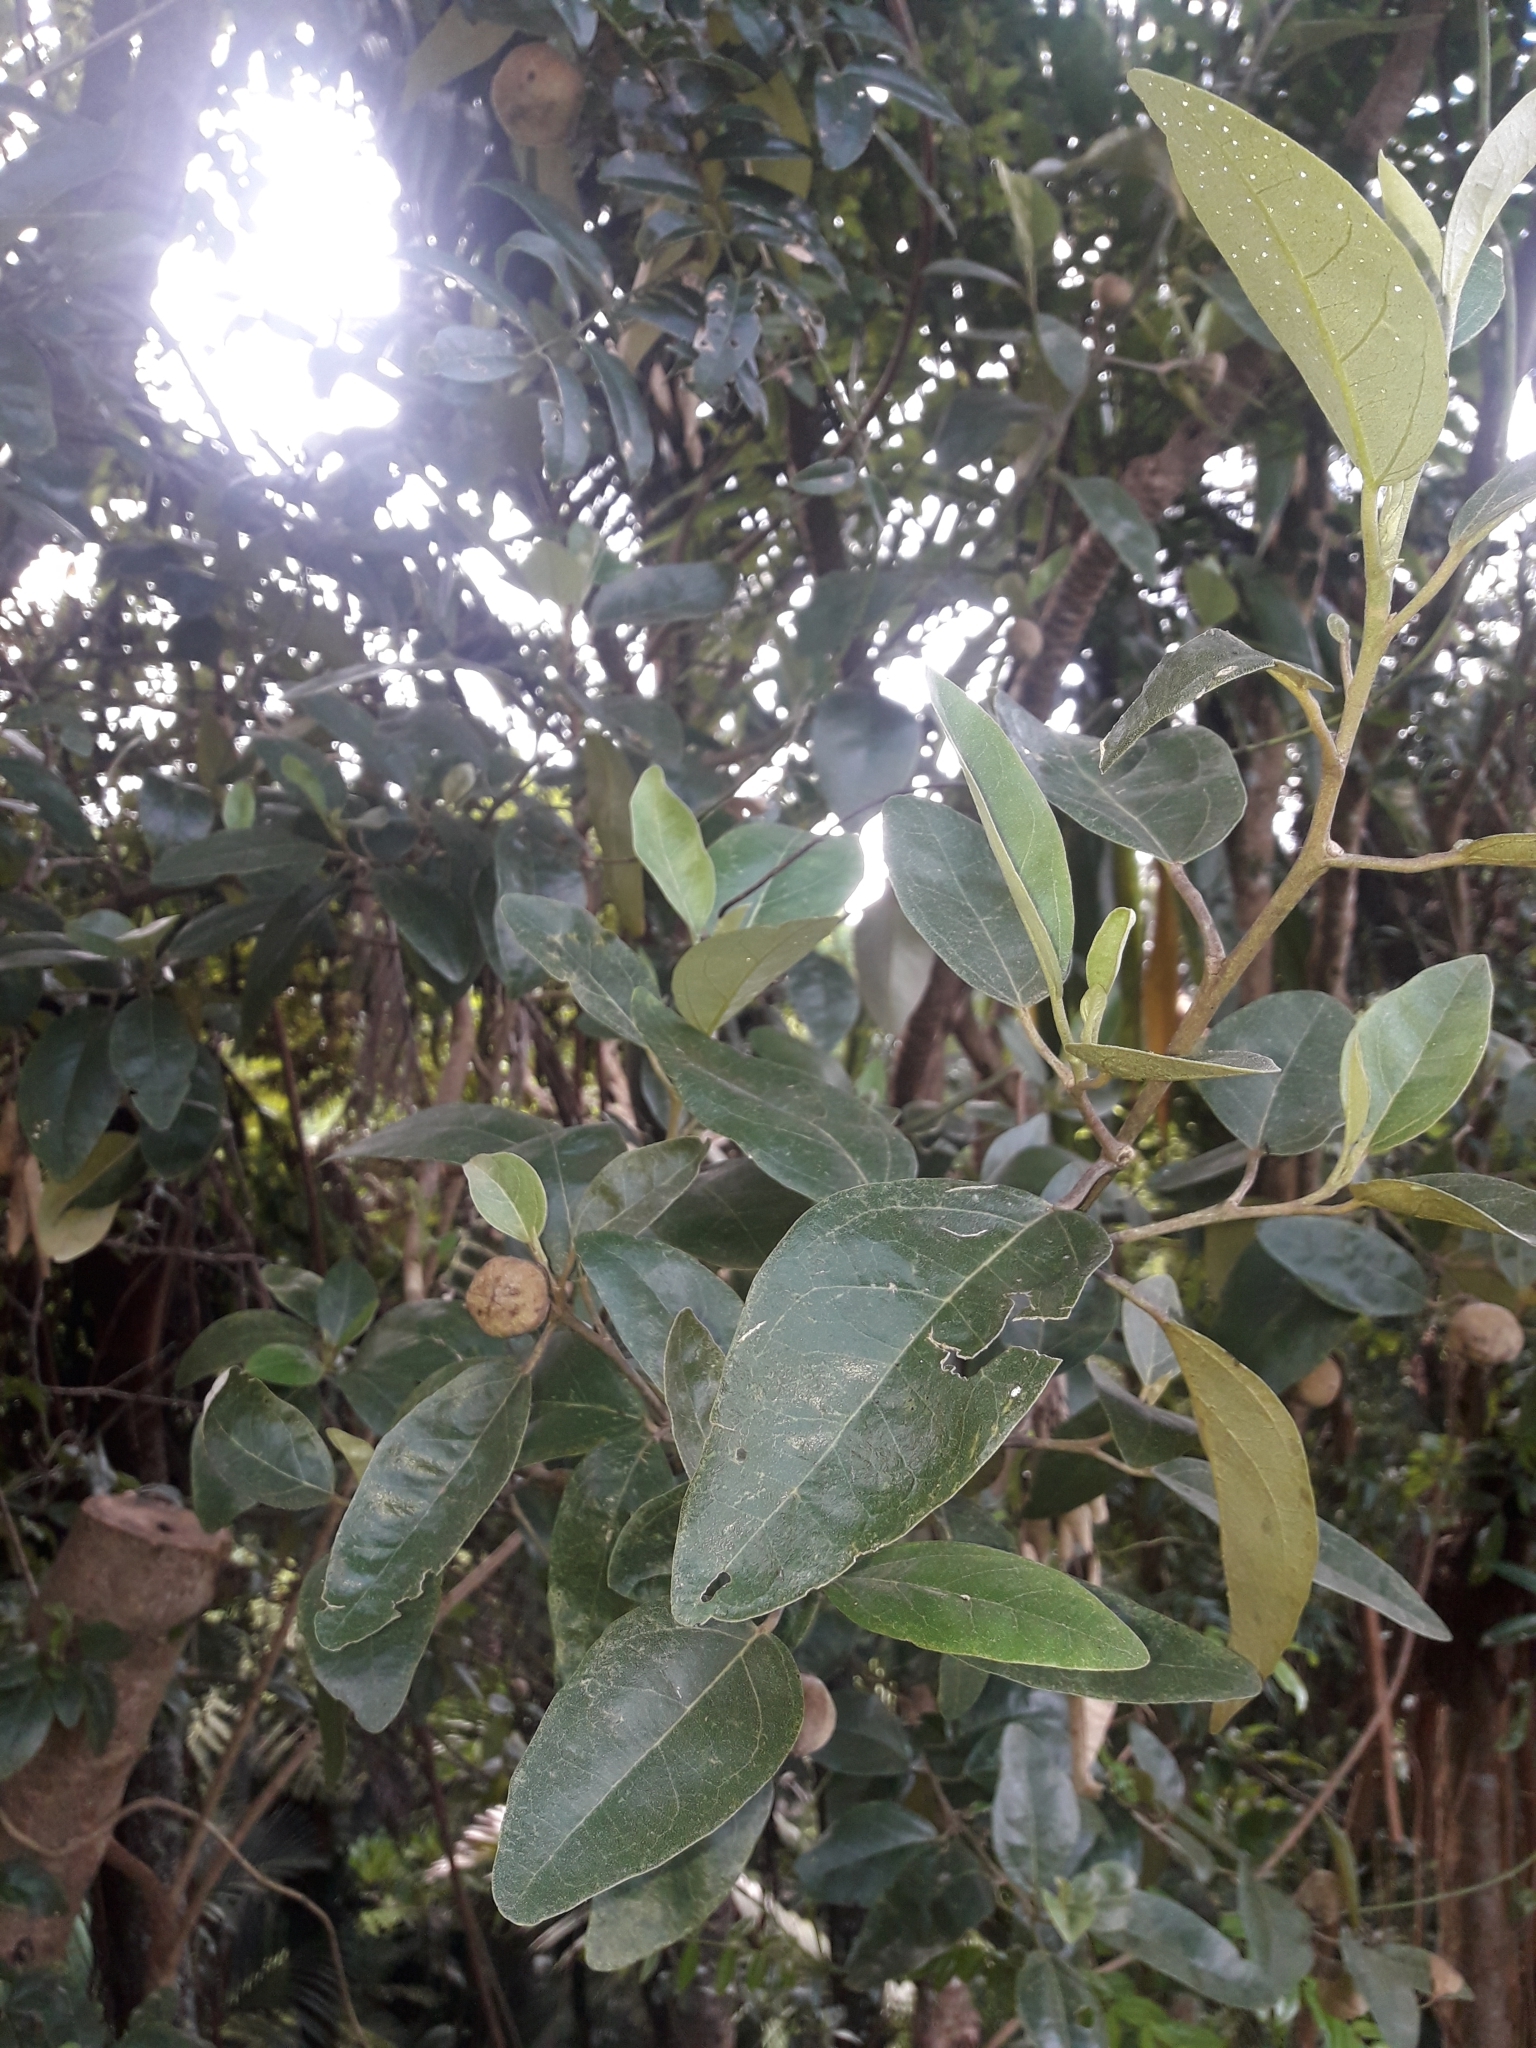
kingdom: Plantae
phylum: Tracheophyta
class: Magnoliopsida
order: Malvales
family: Malvaceae
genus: Lagunaria
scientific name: Lagunaria patersonia
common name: Cow itch tree
